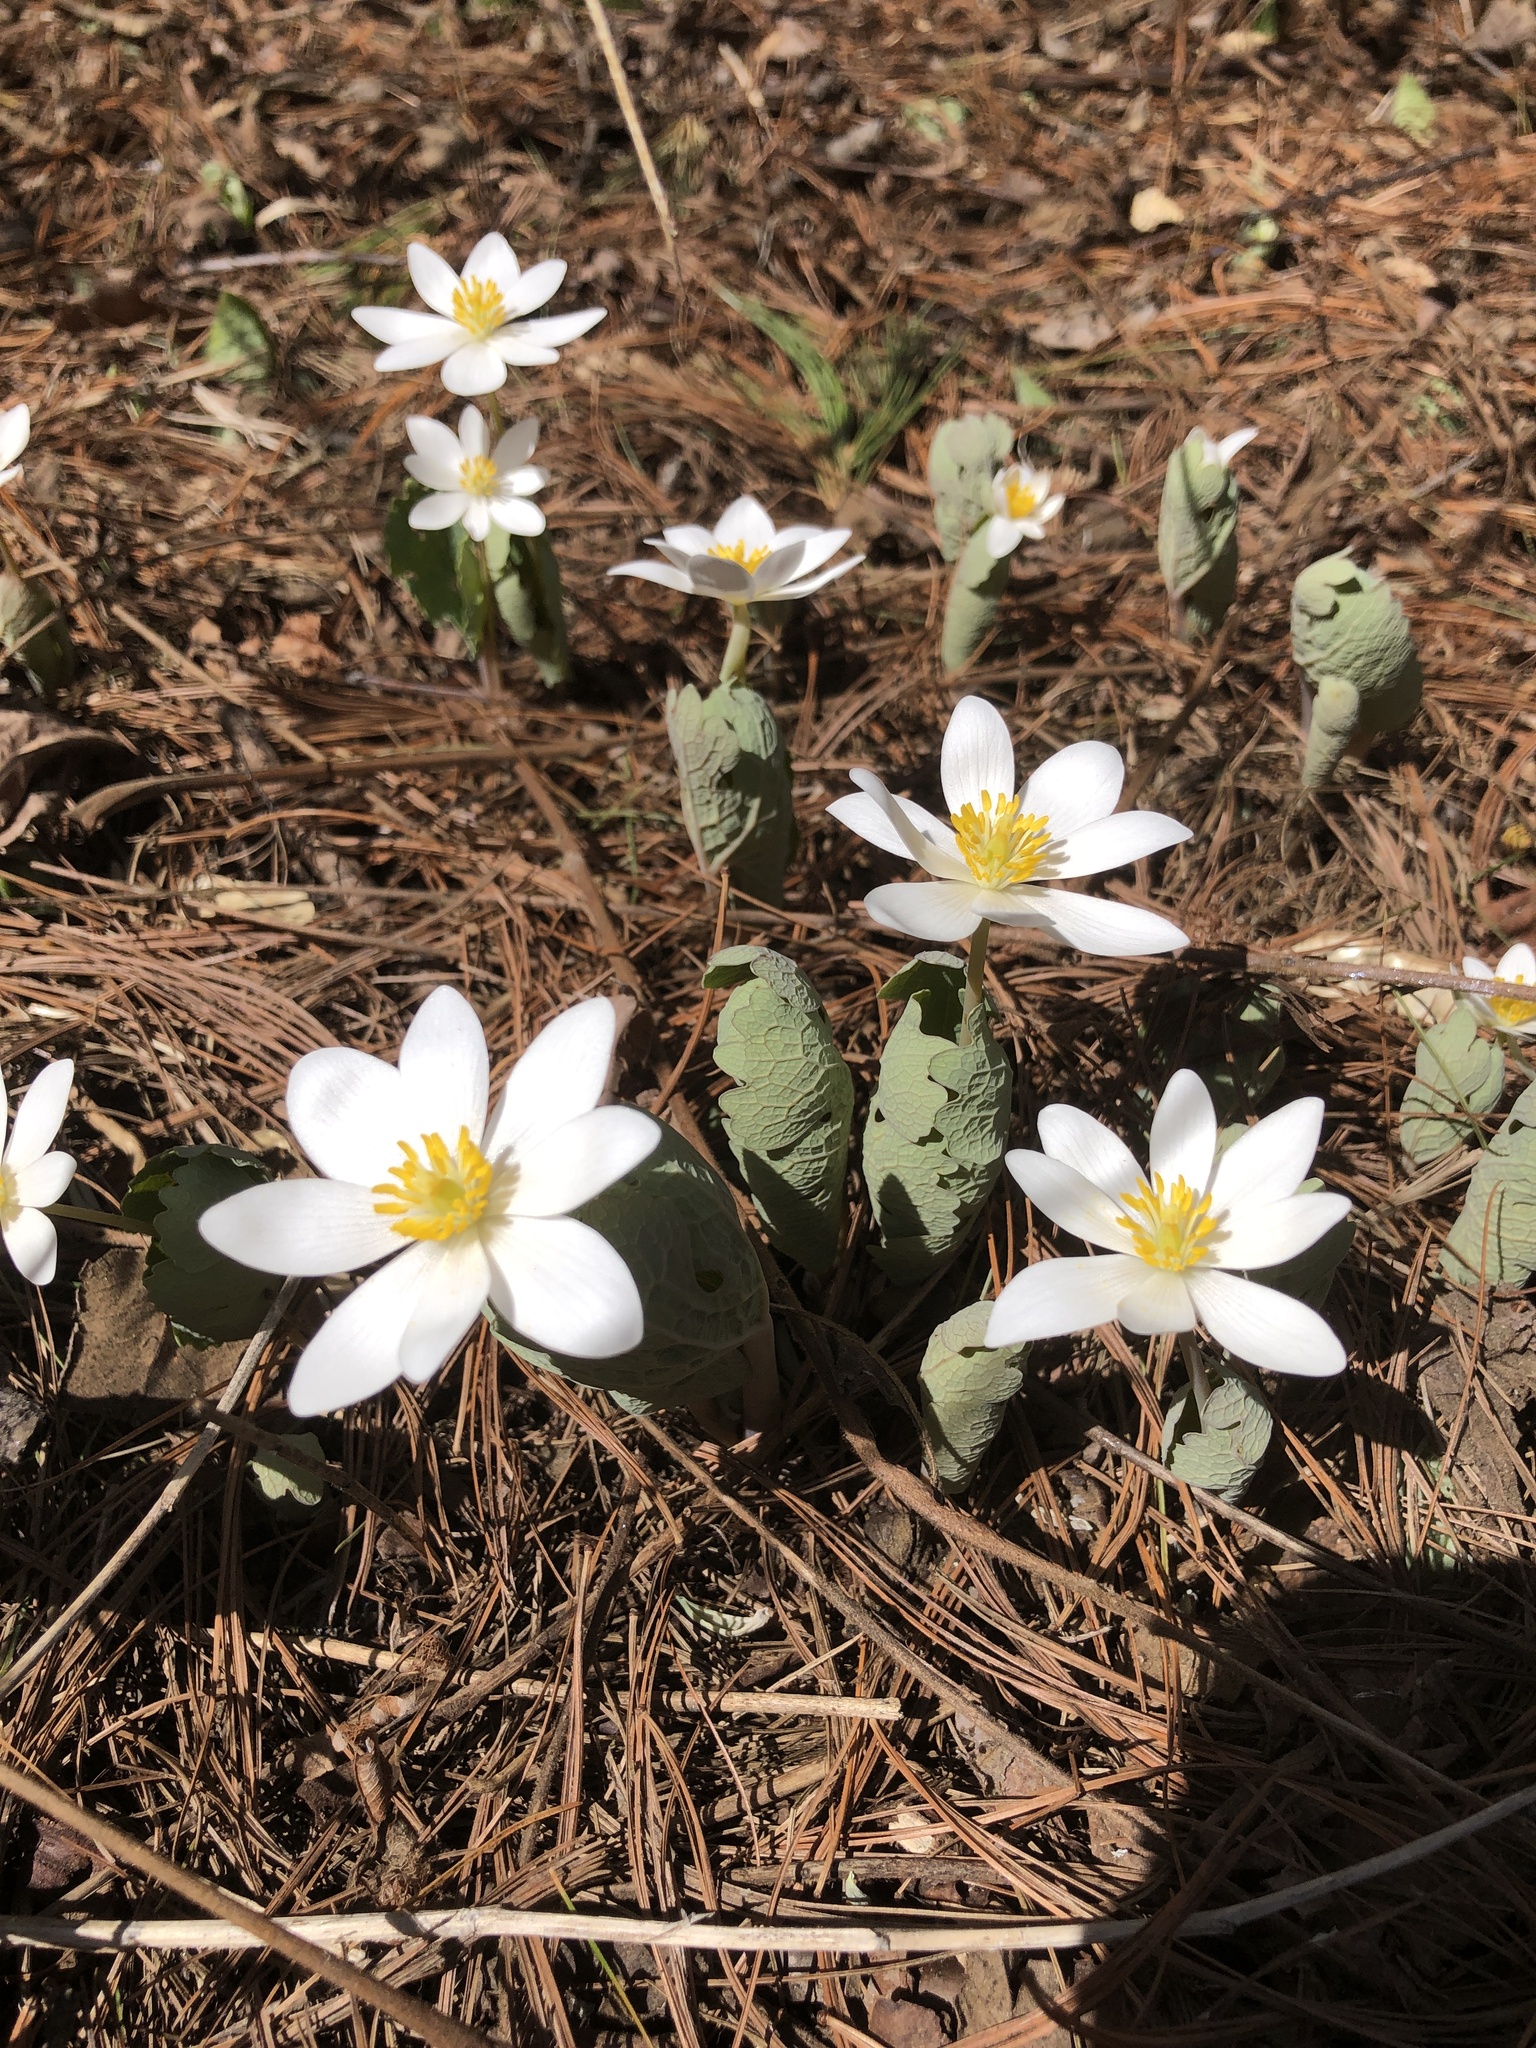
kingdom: Plantae
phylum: Tracheophyta
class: Magnoliopsida
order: Ranunculales
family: Papaveraceae
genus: Sanguinaria
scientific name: Sanguinaria canadensis
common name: Bloodroot
